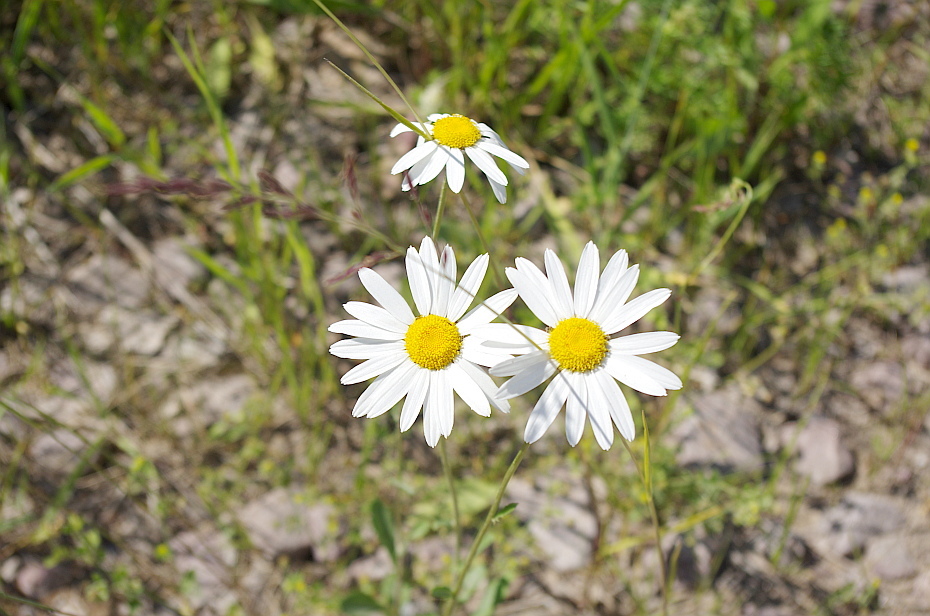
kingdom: Plantae
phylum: Tracheophyta
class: Magnoliopsida
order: Asterales
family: Asteraceae
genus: Leucanthemum
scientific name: Leucanthemum vulgare
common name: Oxeye daisy
